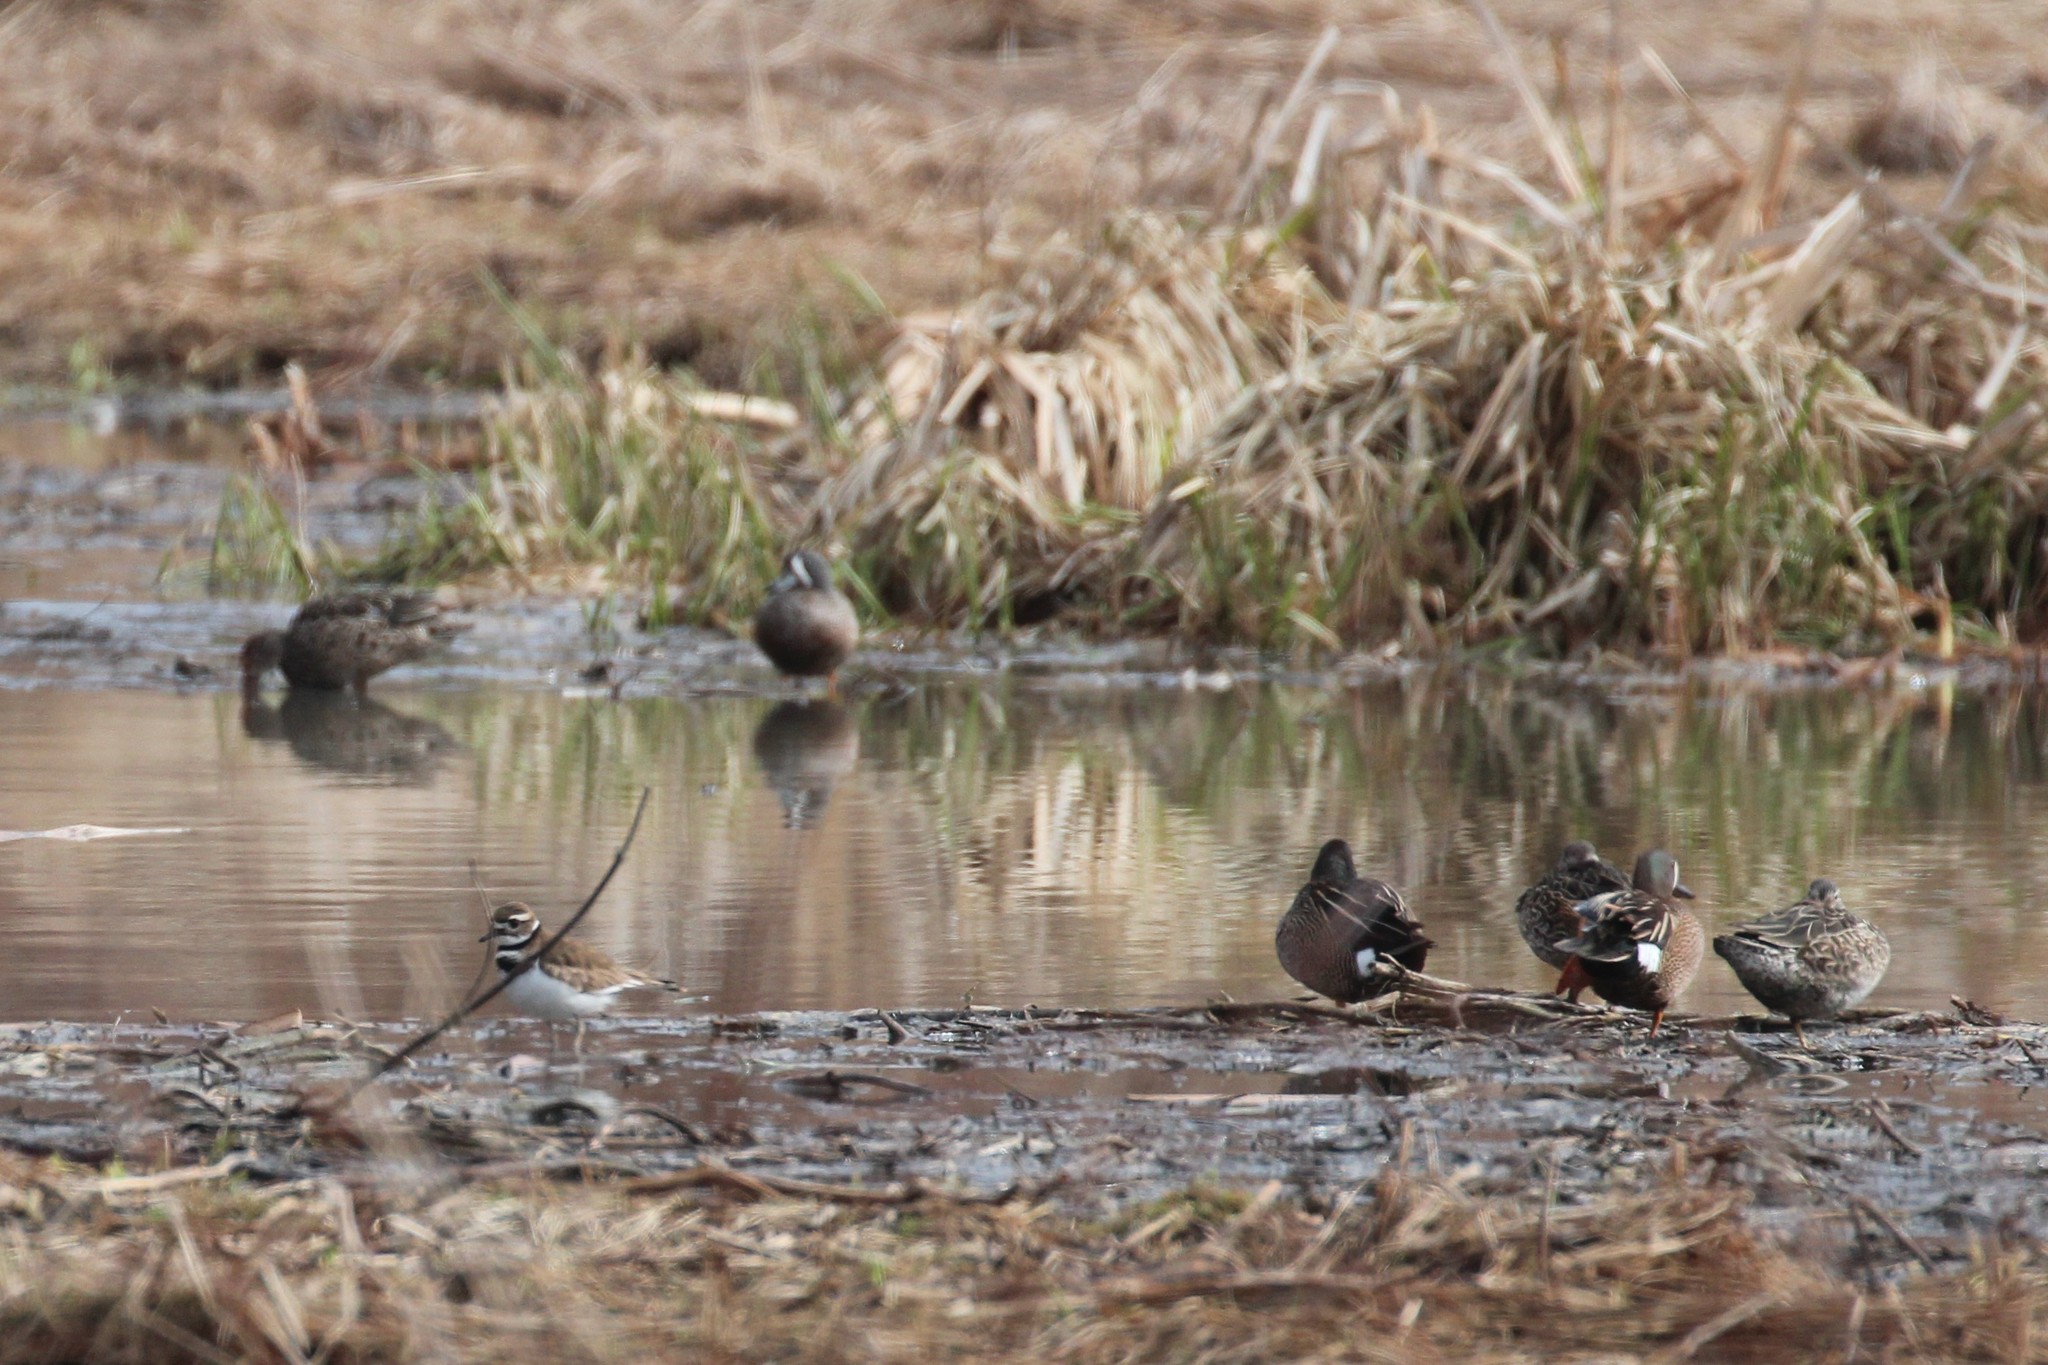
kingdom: Animalia
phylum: Chordata
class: Aves
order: Charadriiformes
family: Charadriidae
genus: Charadrius
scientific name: Charadrius vociferus
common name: Killdeer
